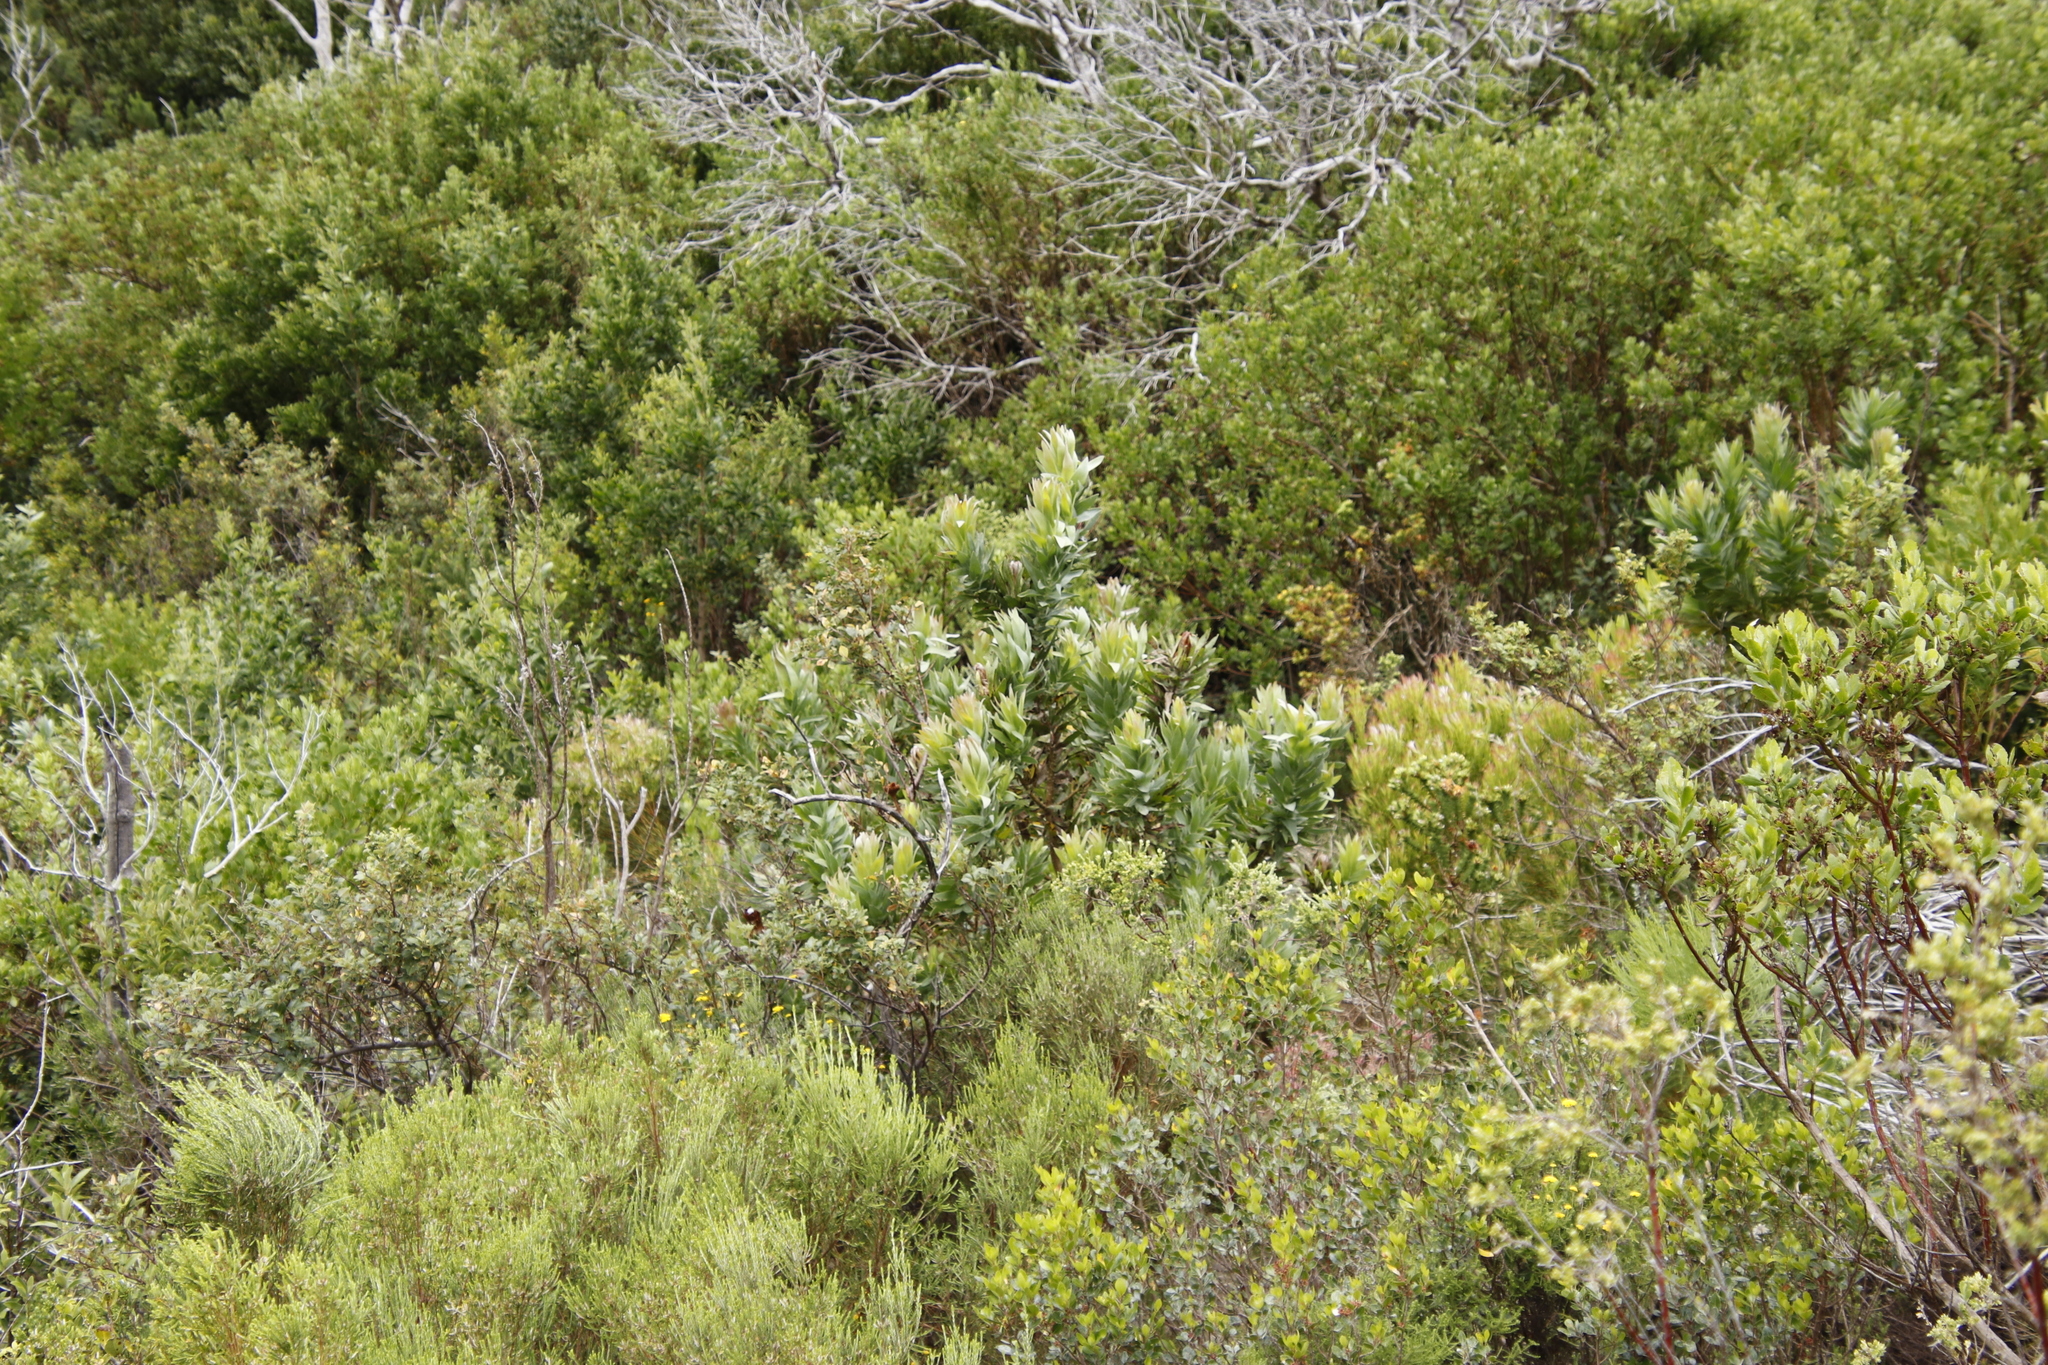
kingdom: Plantae
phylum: Tracheophyta
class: Magnoliopsida
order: Proteales
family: Proteaceae
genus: Protea
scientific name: Protea coronata
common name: Green sugarbush
